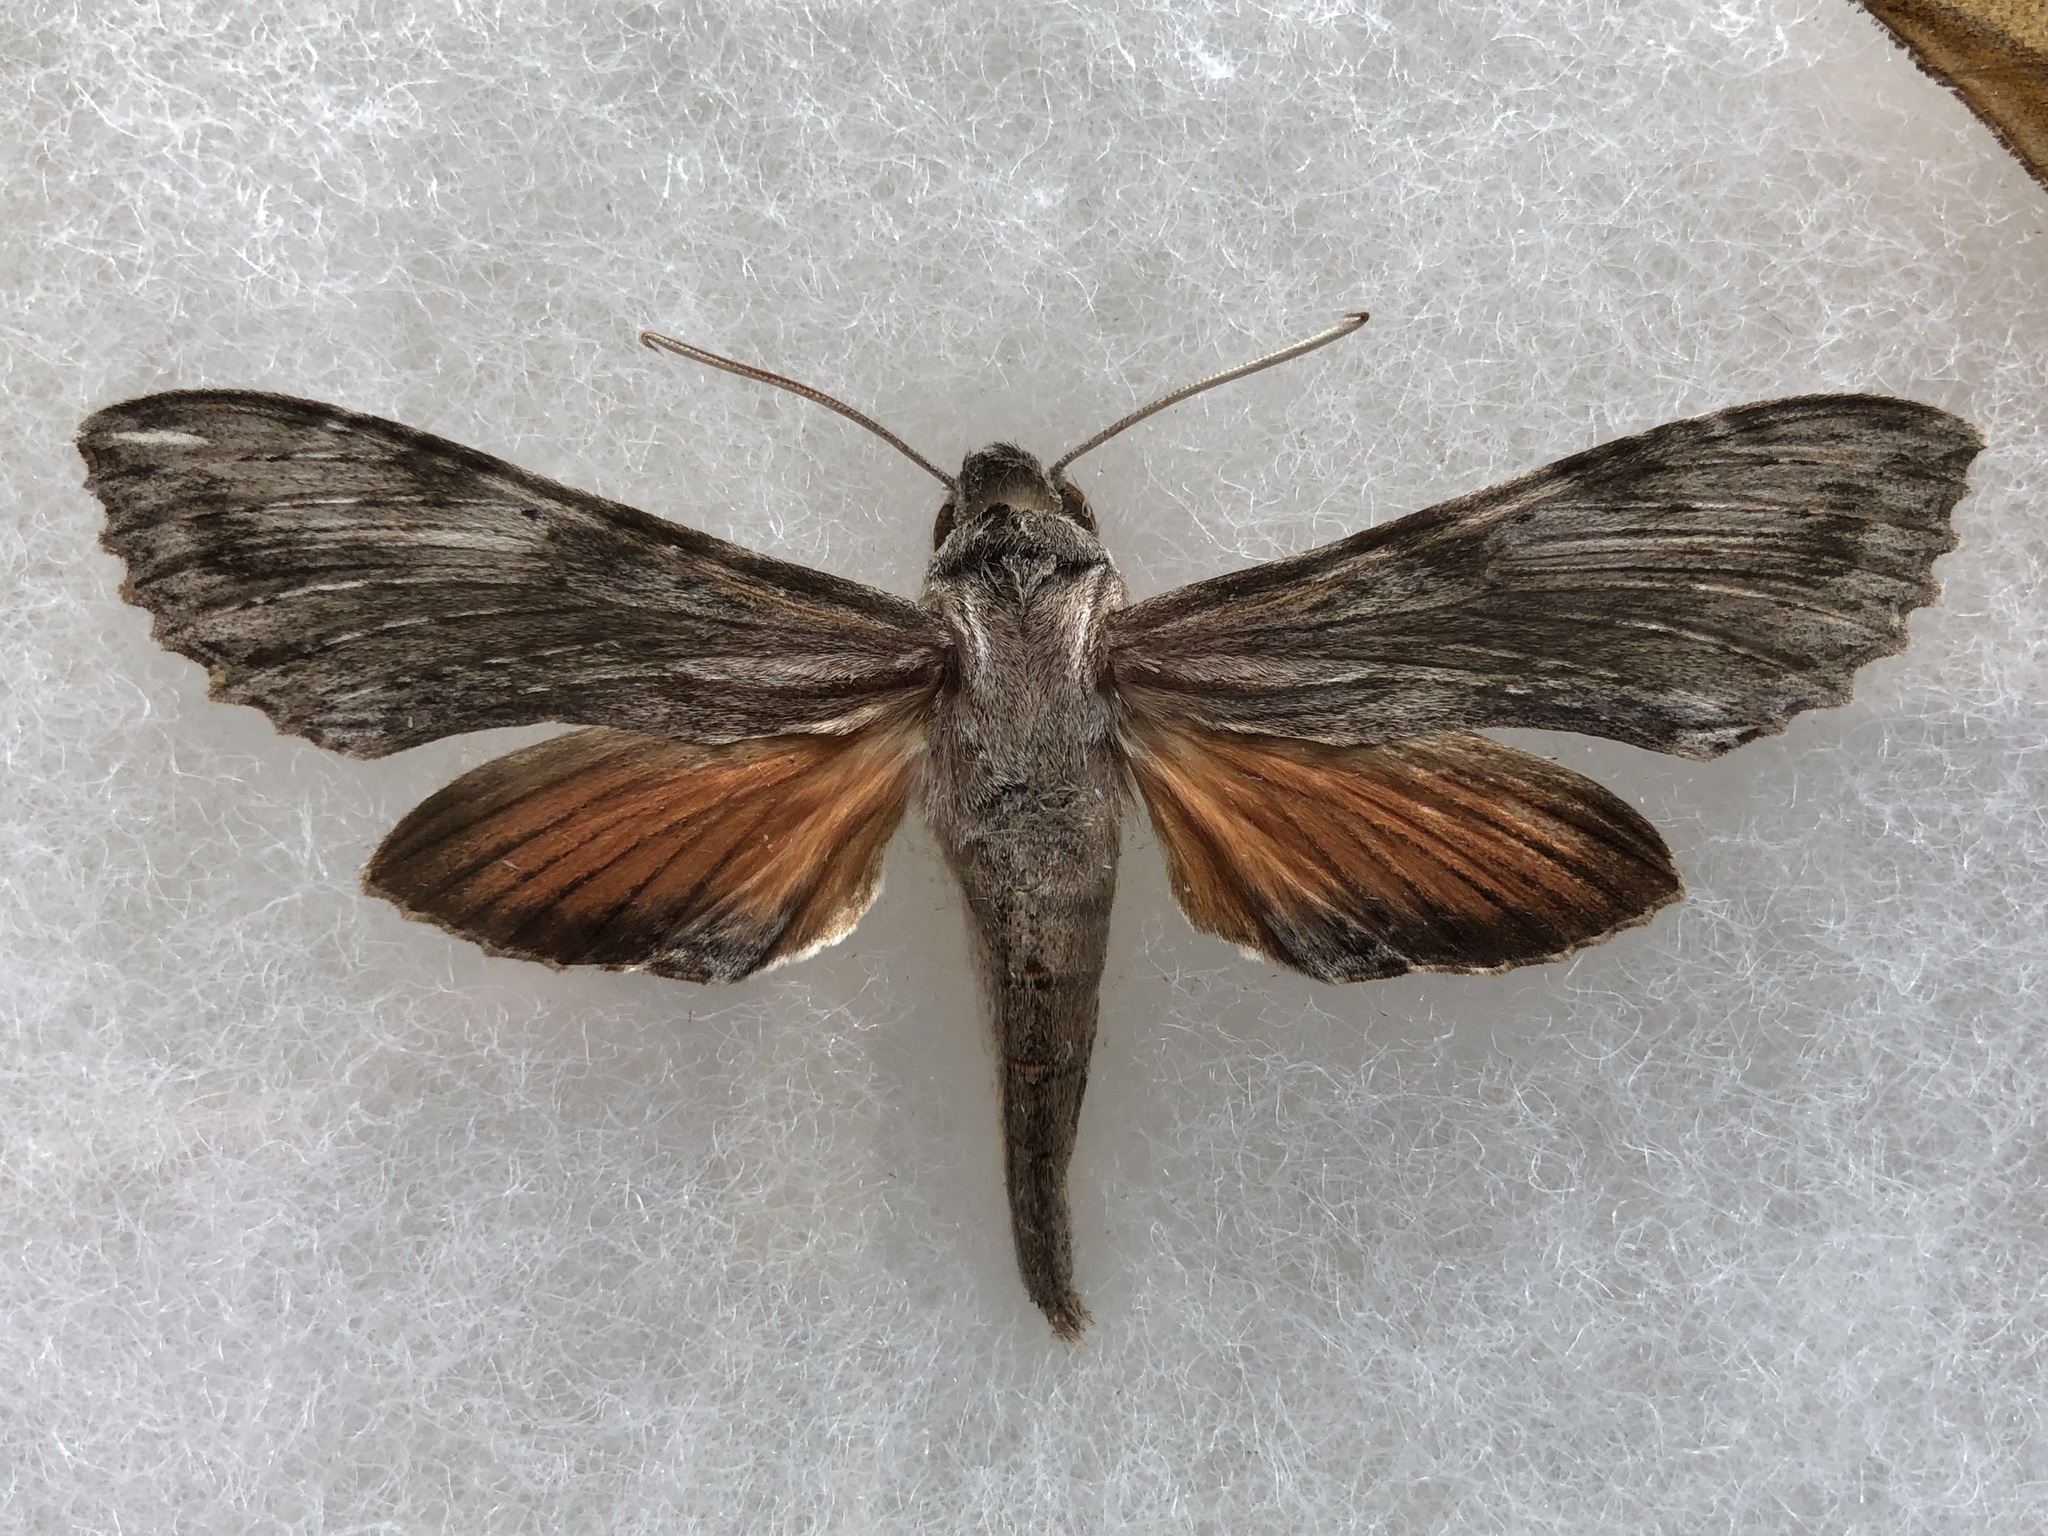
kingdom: Animalia
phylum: Arthropoda
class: Insecta
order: Lepidoptera
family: Sphingidae
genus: Erinnyis
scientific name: Erinnyis obscura
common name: Obscure sphinx
